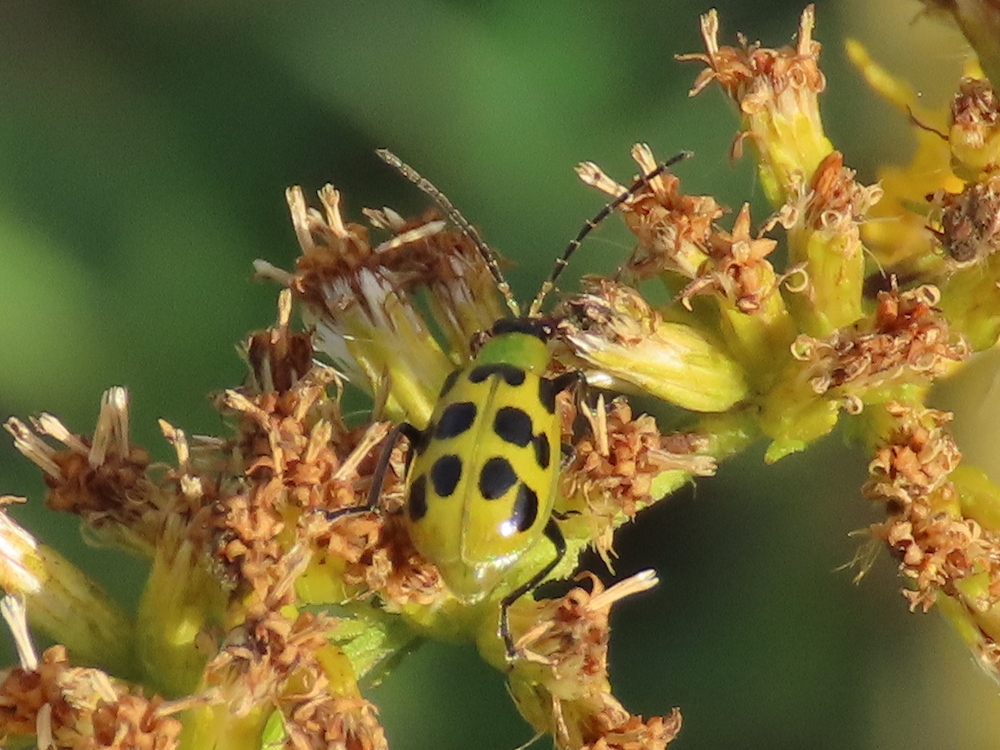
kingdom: Animalia
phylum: Arthropoda
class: Insecta
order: Coleoptera
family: Chrysomelidae
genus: Diabrotica
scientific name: Diabrotica undecimpunctata
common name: Spotted cucumber beetle
